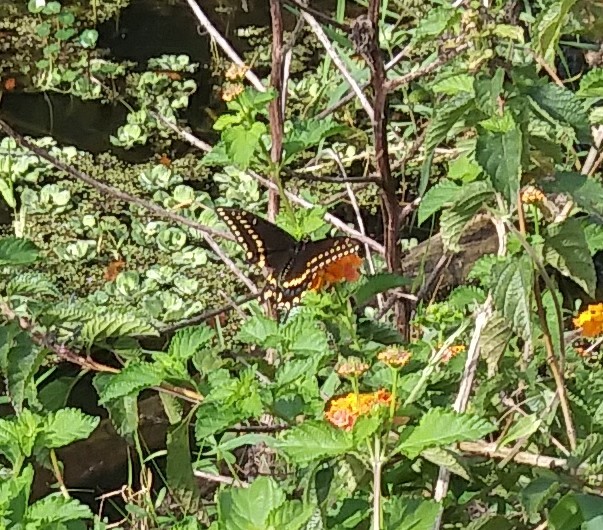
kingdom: Animalia
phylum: Arthropoda
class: Insecta
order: Lepidoptera
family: Papilionidae
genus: Papilio
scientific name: Papilio polyxenes
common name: Black swallowtail
